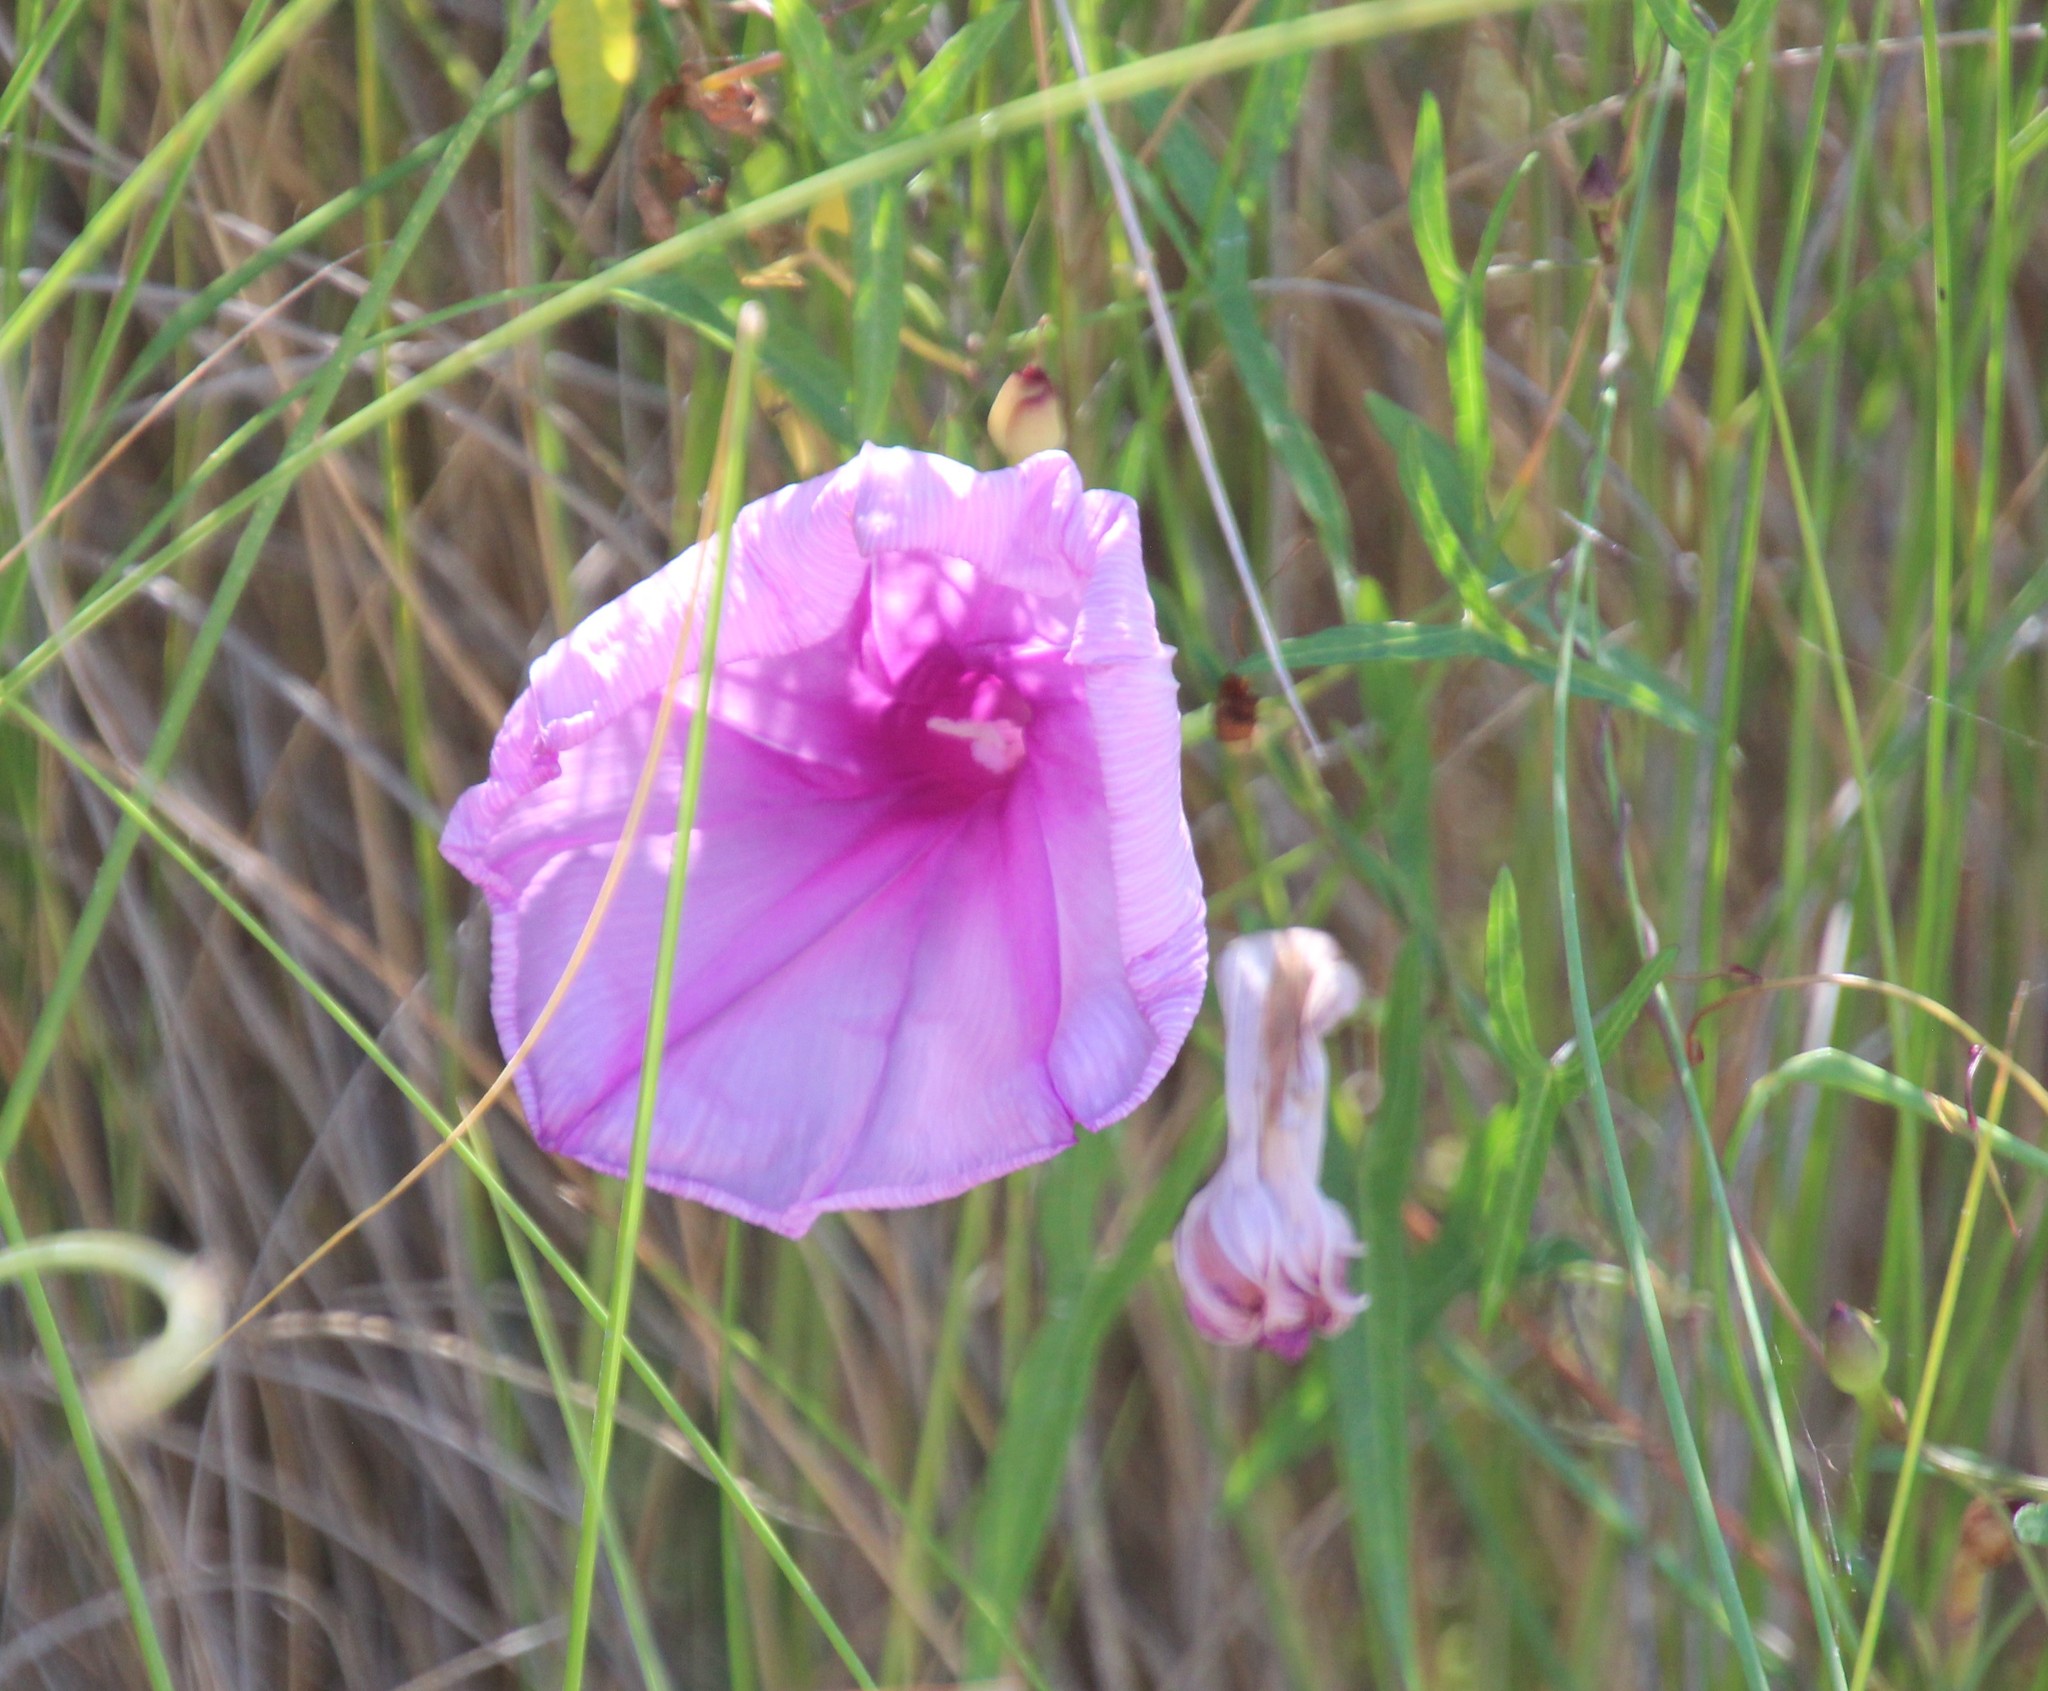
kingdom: Plantae
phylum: Tracheophyta
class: Magnoliopsida
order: Solanales
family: Convolvulaceae
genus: Ipomoea
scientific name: Ipomoea sagittata
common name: Saltmarsh morning glory
